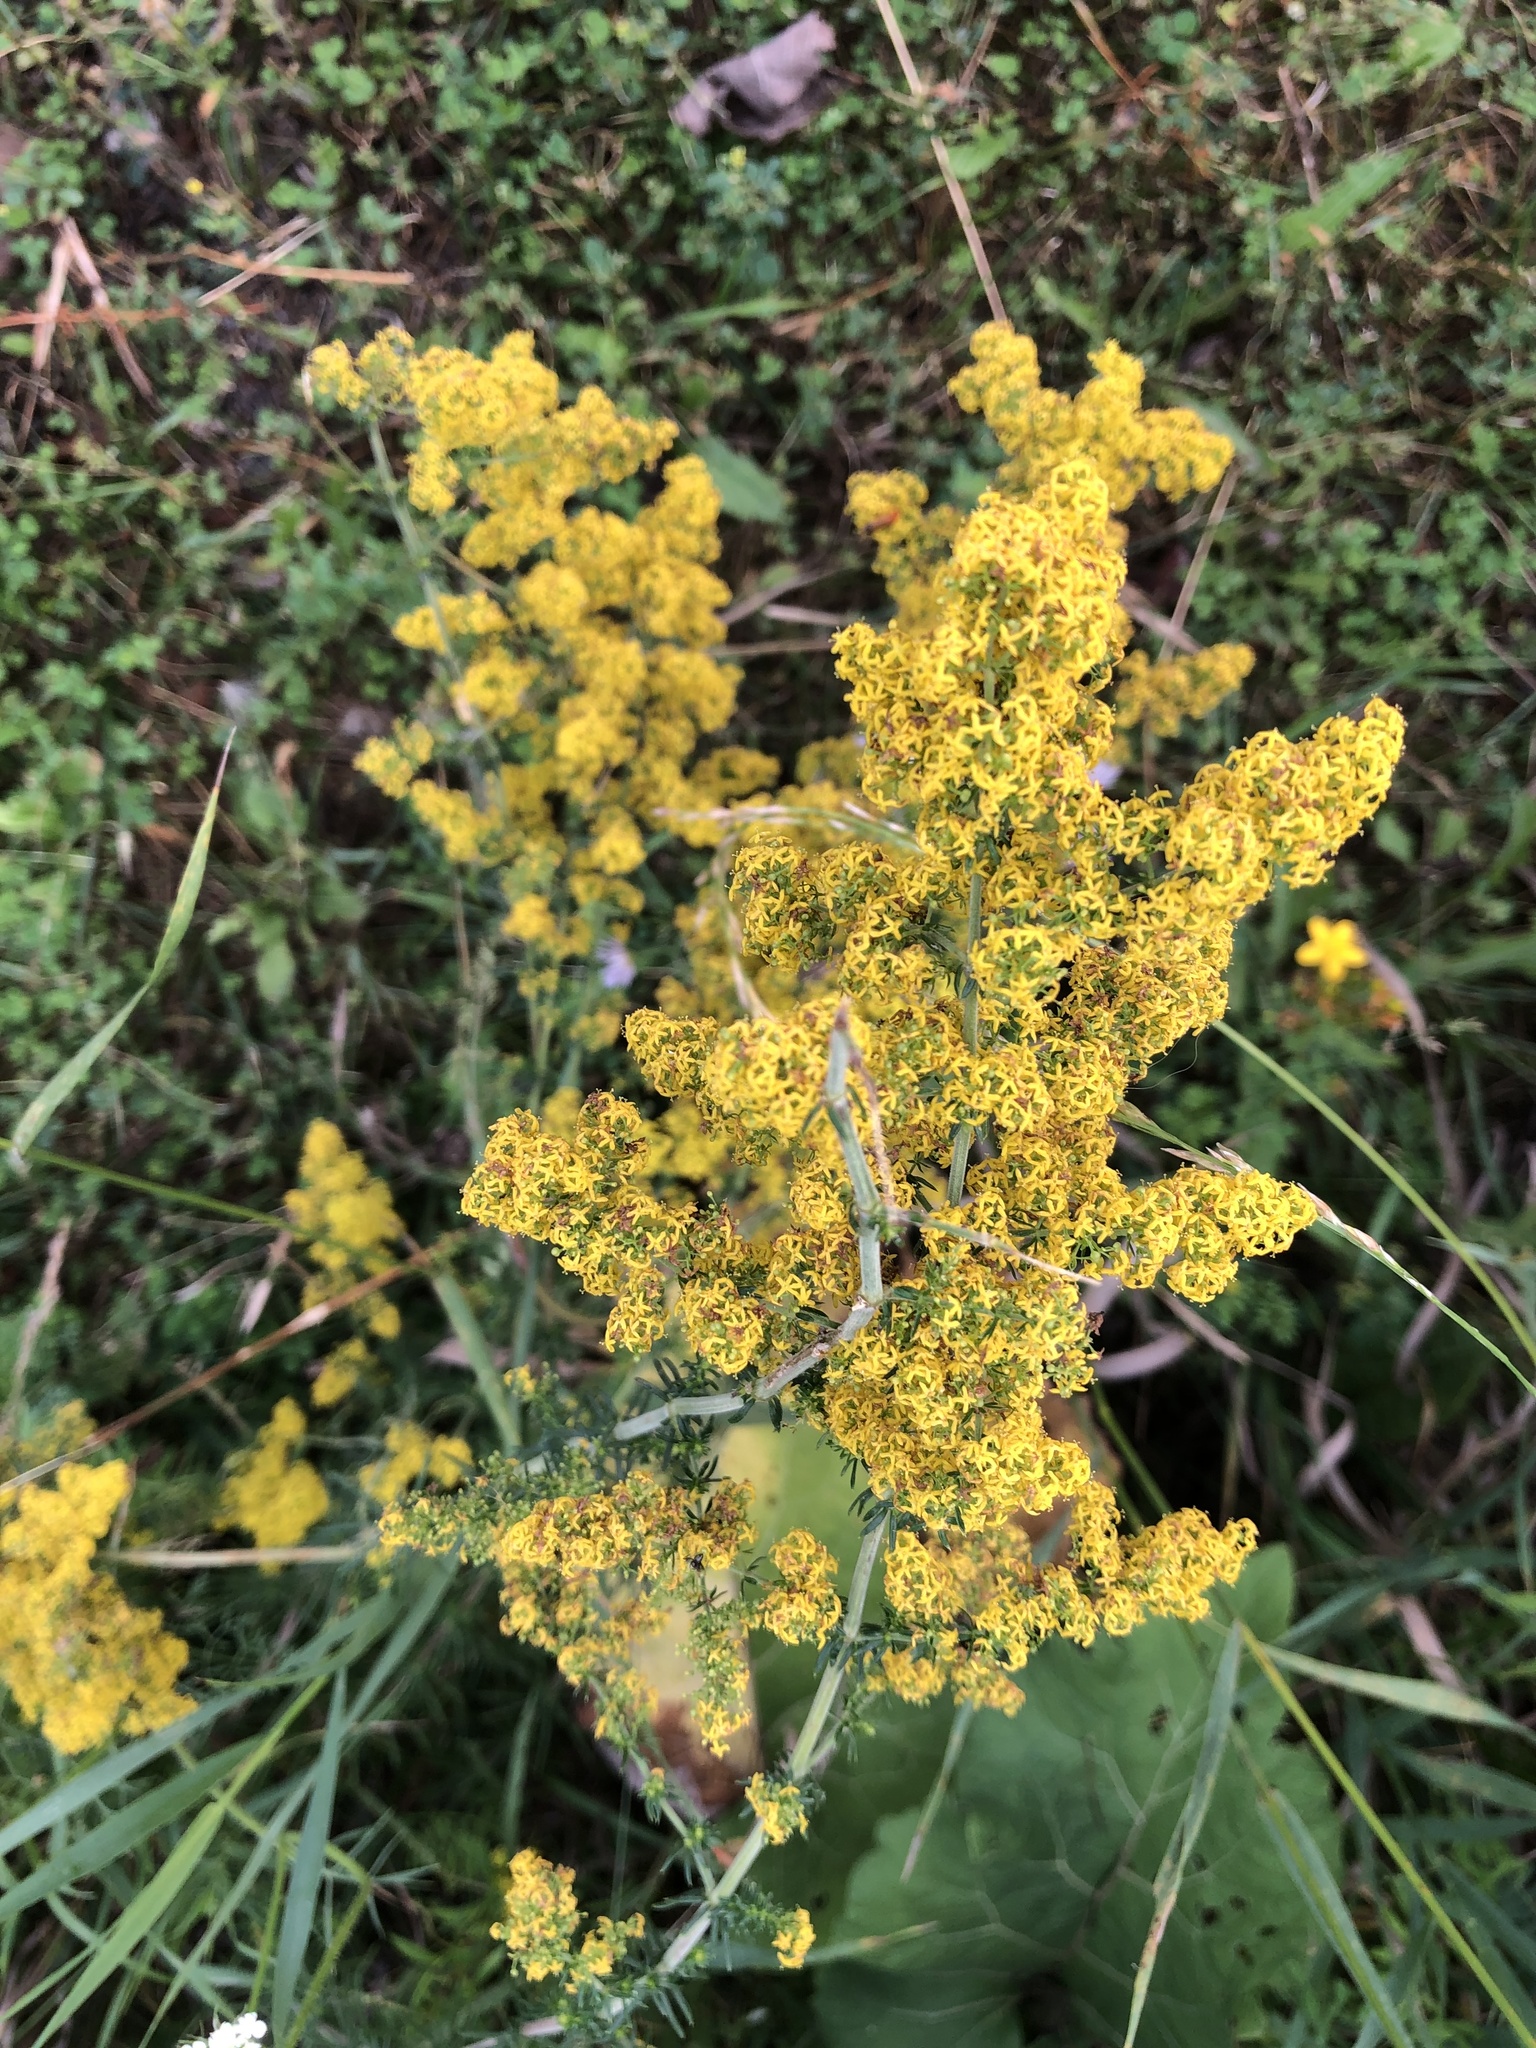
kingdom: Plantae
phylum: Tracheophyta
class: Magnoliopsida
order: Gentianales
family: Rubiaceae
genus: Galium
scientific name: Galium verum
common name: Lady's bedstraw
